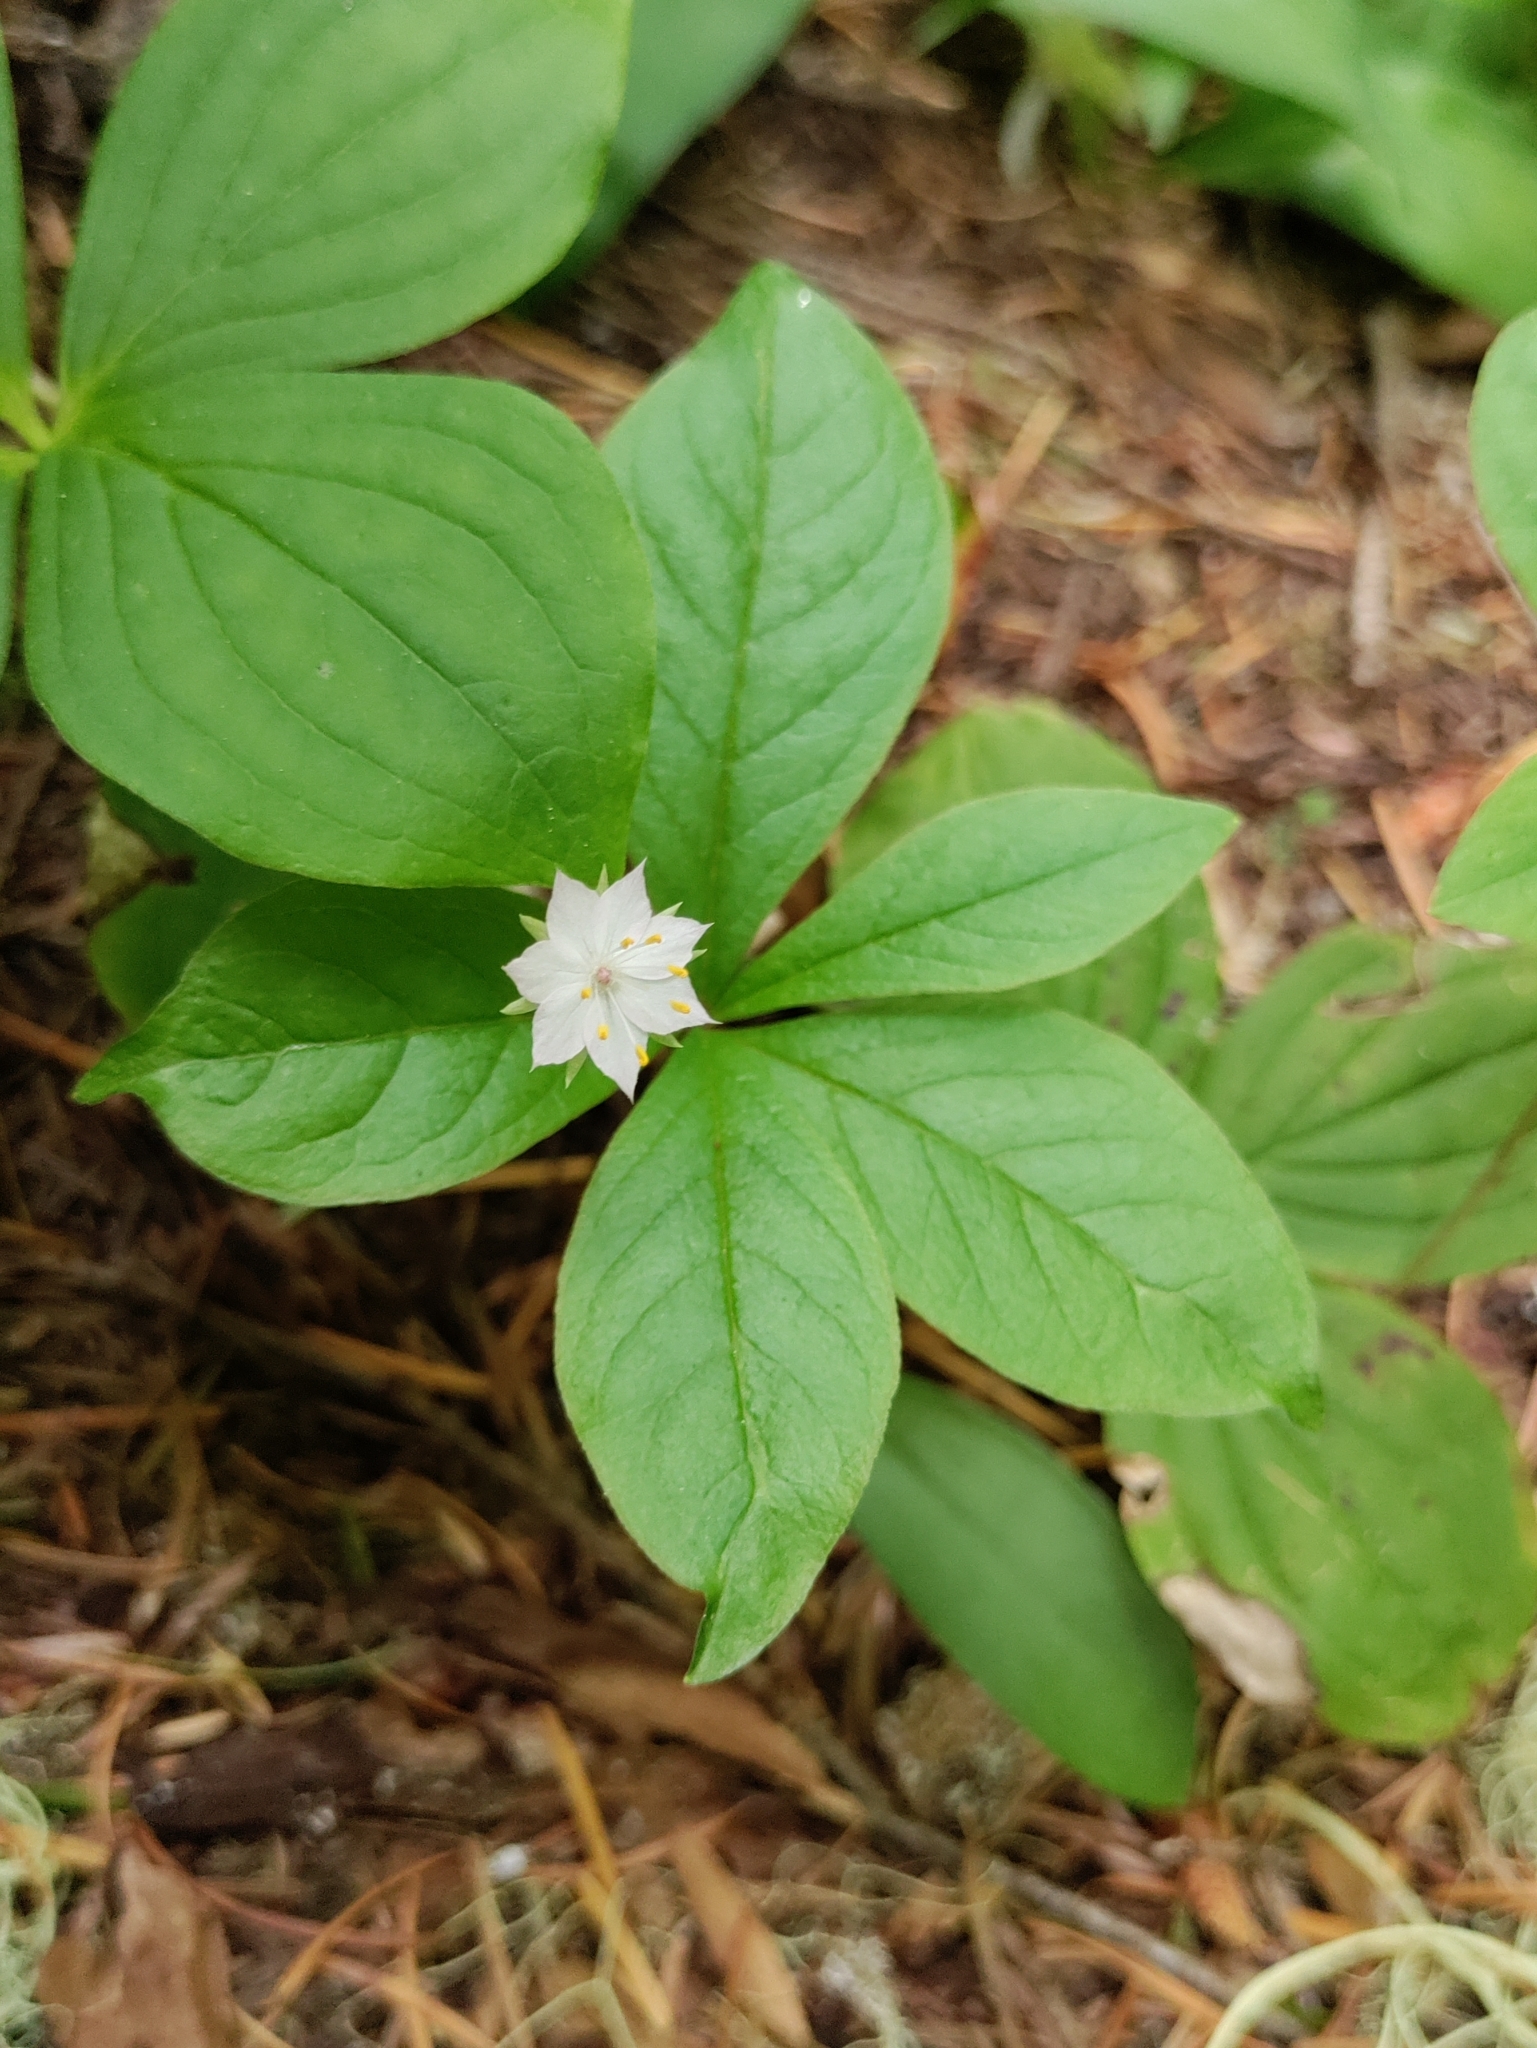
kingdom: Plantae
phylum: Tracheophyta
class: Magnoliopsida
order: Ericales
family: Primulaceae
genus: Lysimachia
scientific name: Lysimachia latifolia
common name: Pacific starflower
